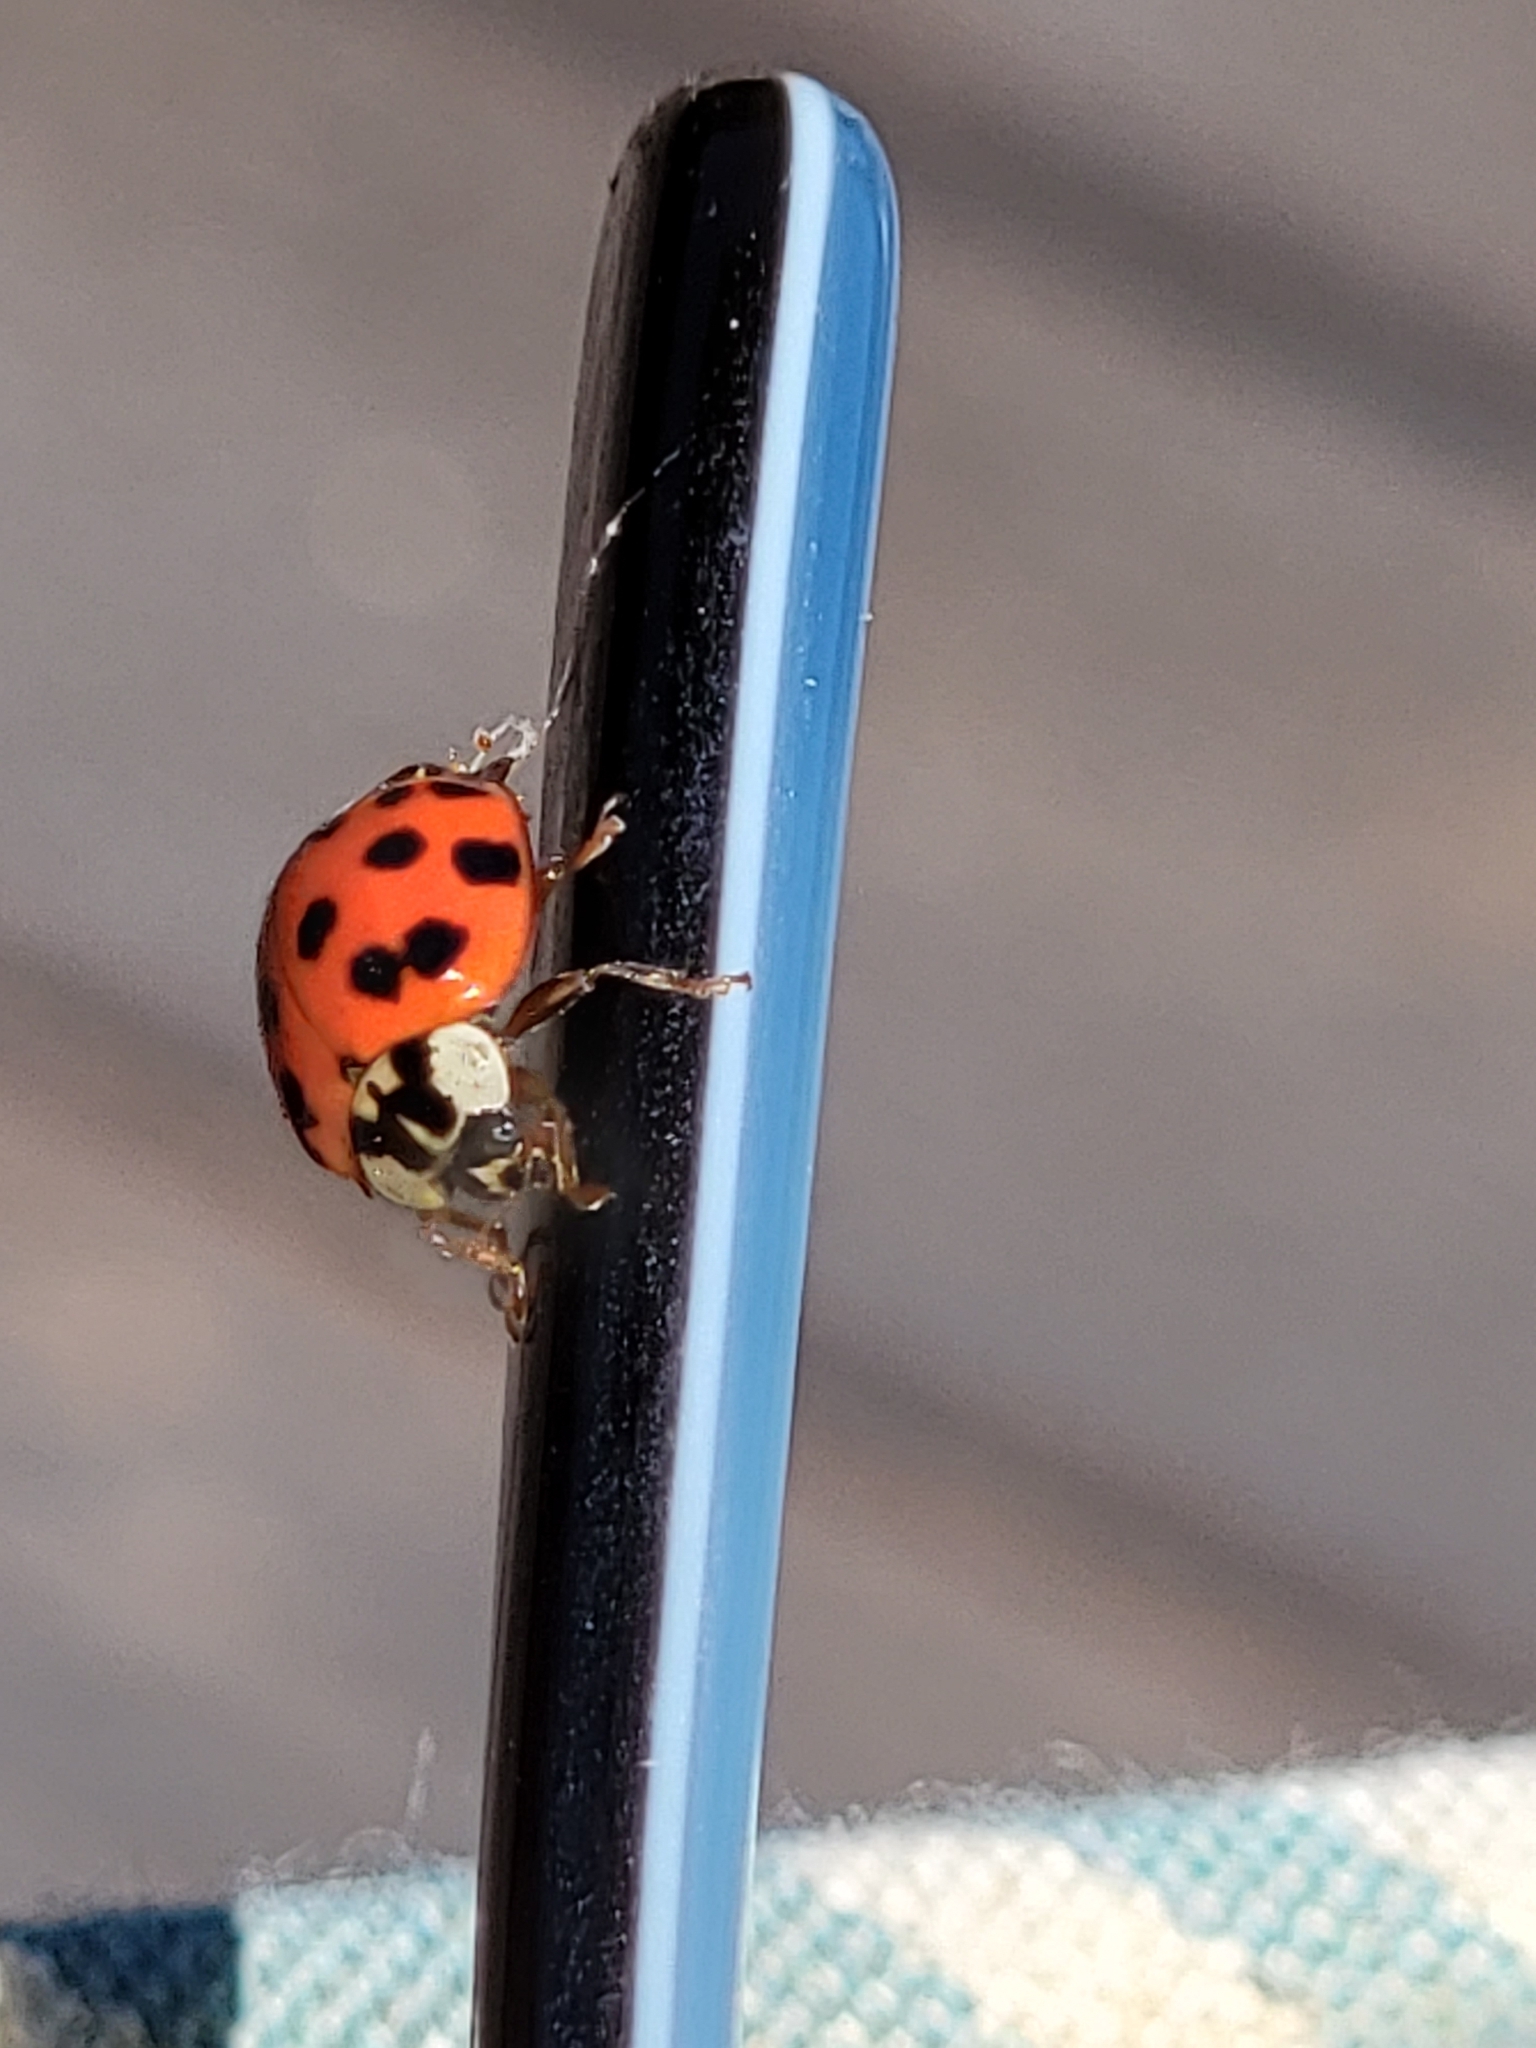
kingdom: Animalia
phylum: Arthropoda
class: Insecta
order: Coleoptera
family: Coccinellidae
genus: Harmonia
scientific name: Harmonia axyridis
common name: Harlequin ladybird
